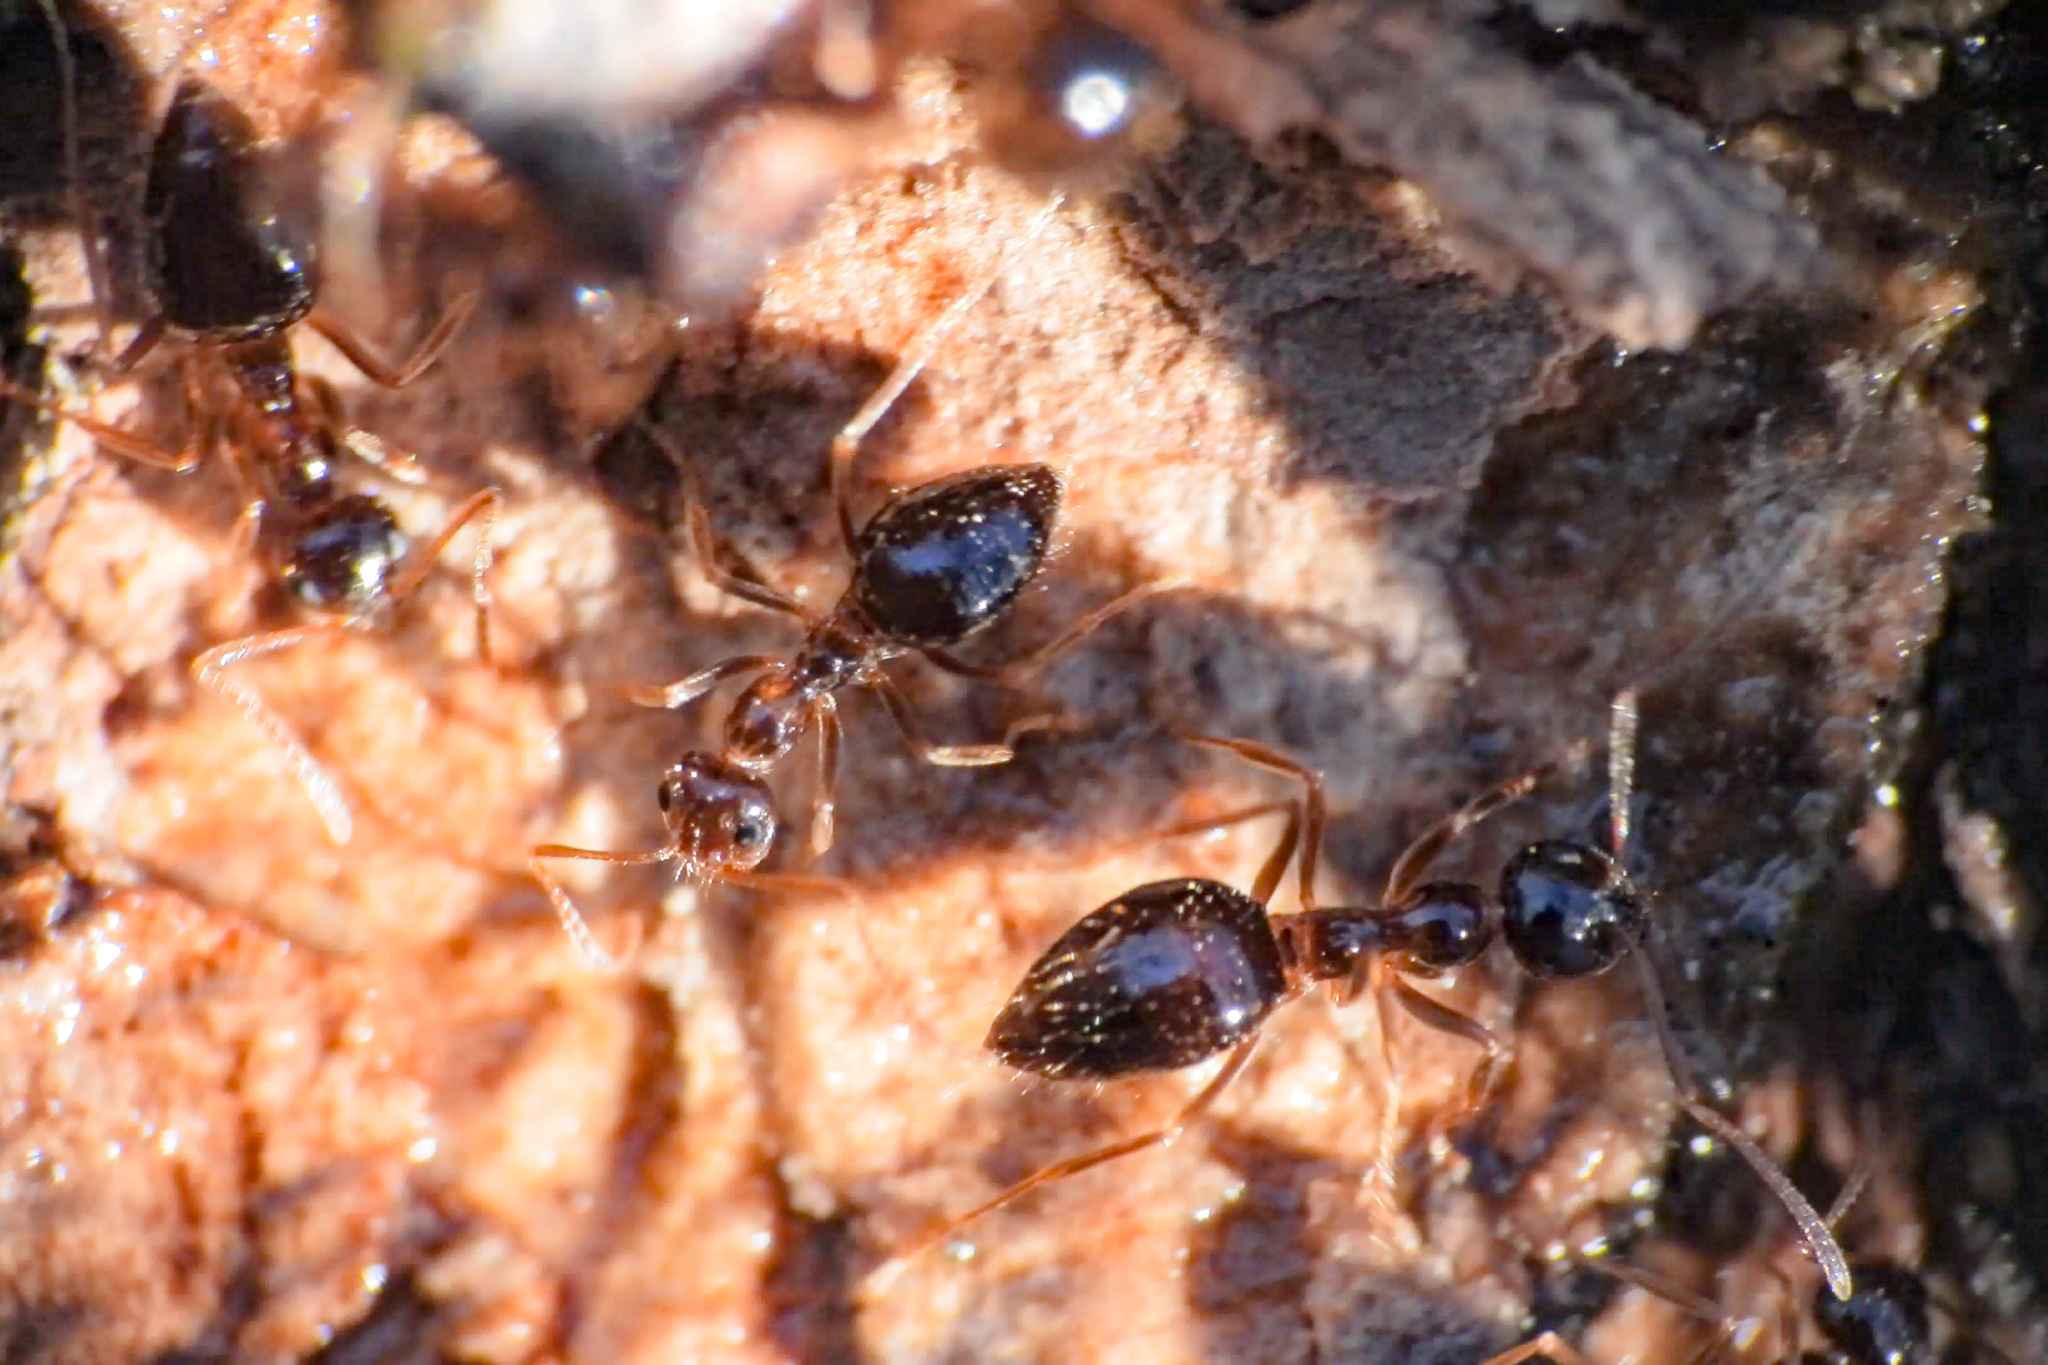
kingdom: Animalia
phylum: Arthropoda
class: Insecta
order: Hymenoptera
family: Formicidae
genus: Prenolepis
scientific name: Prenolepis imparis
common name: Small honey ant
